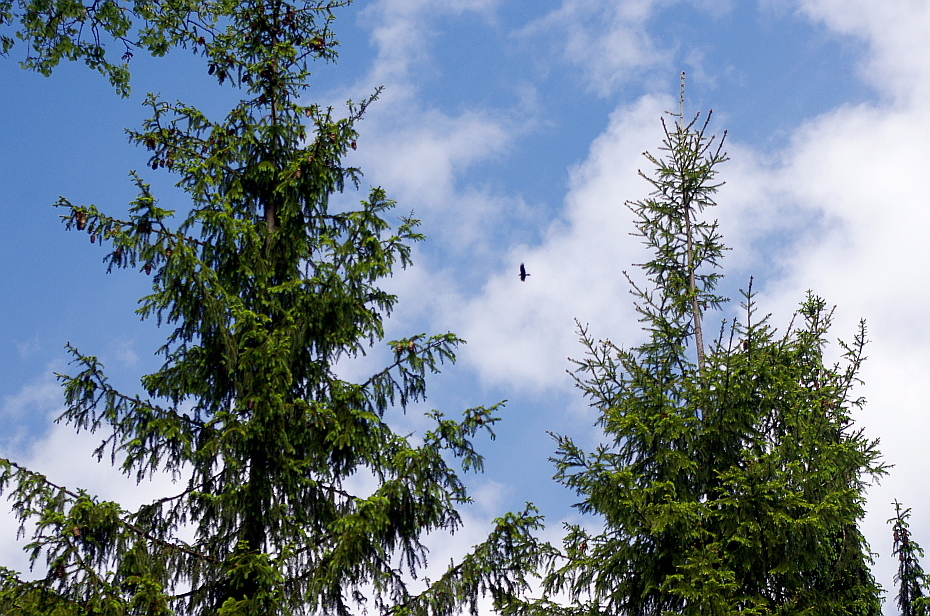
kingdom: Animalia
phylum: Chordata
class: Aves
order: Passeriformes
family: Corvidae
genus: Corvus
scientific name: Corvus corax
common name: Common raven
